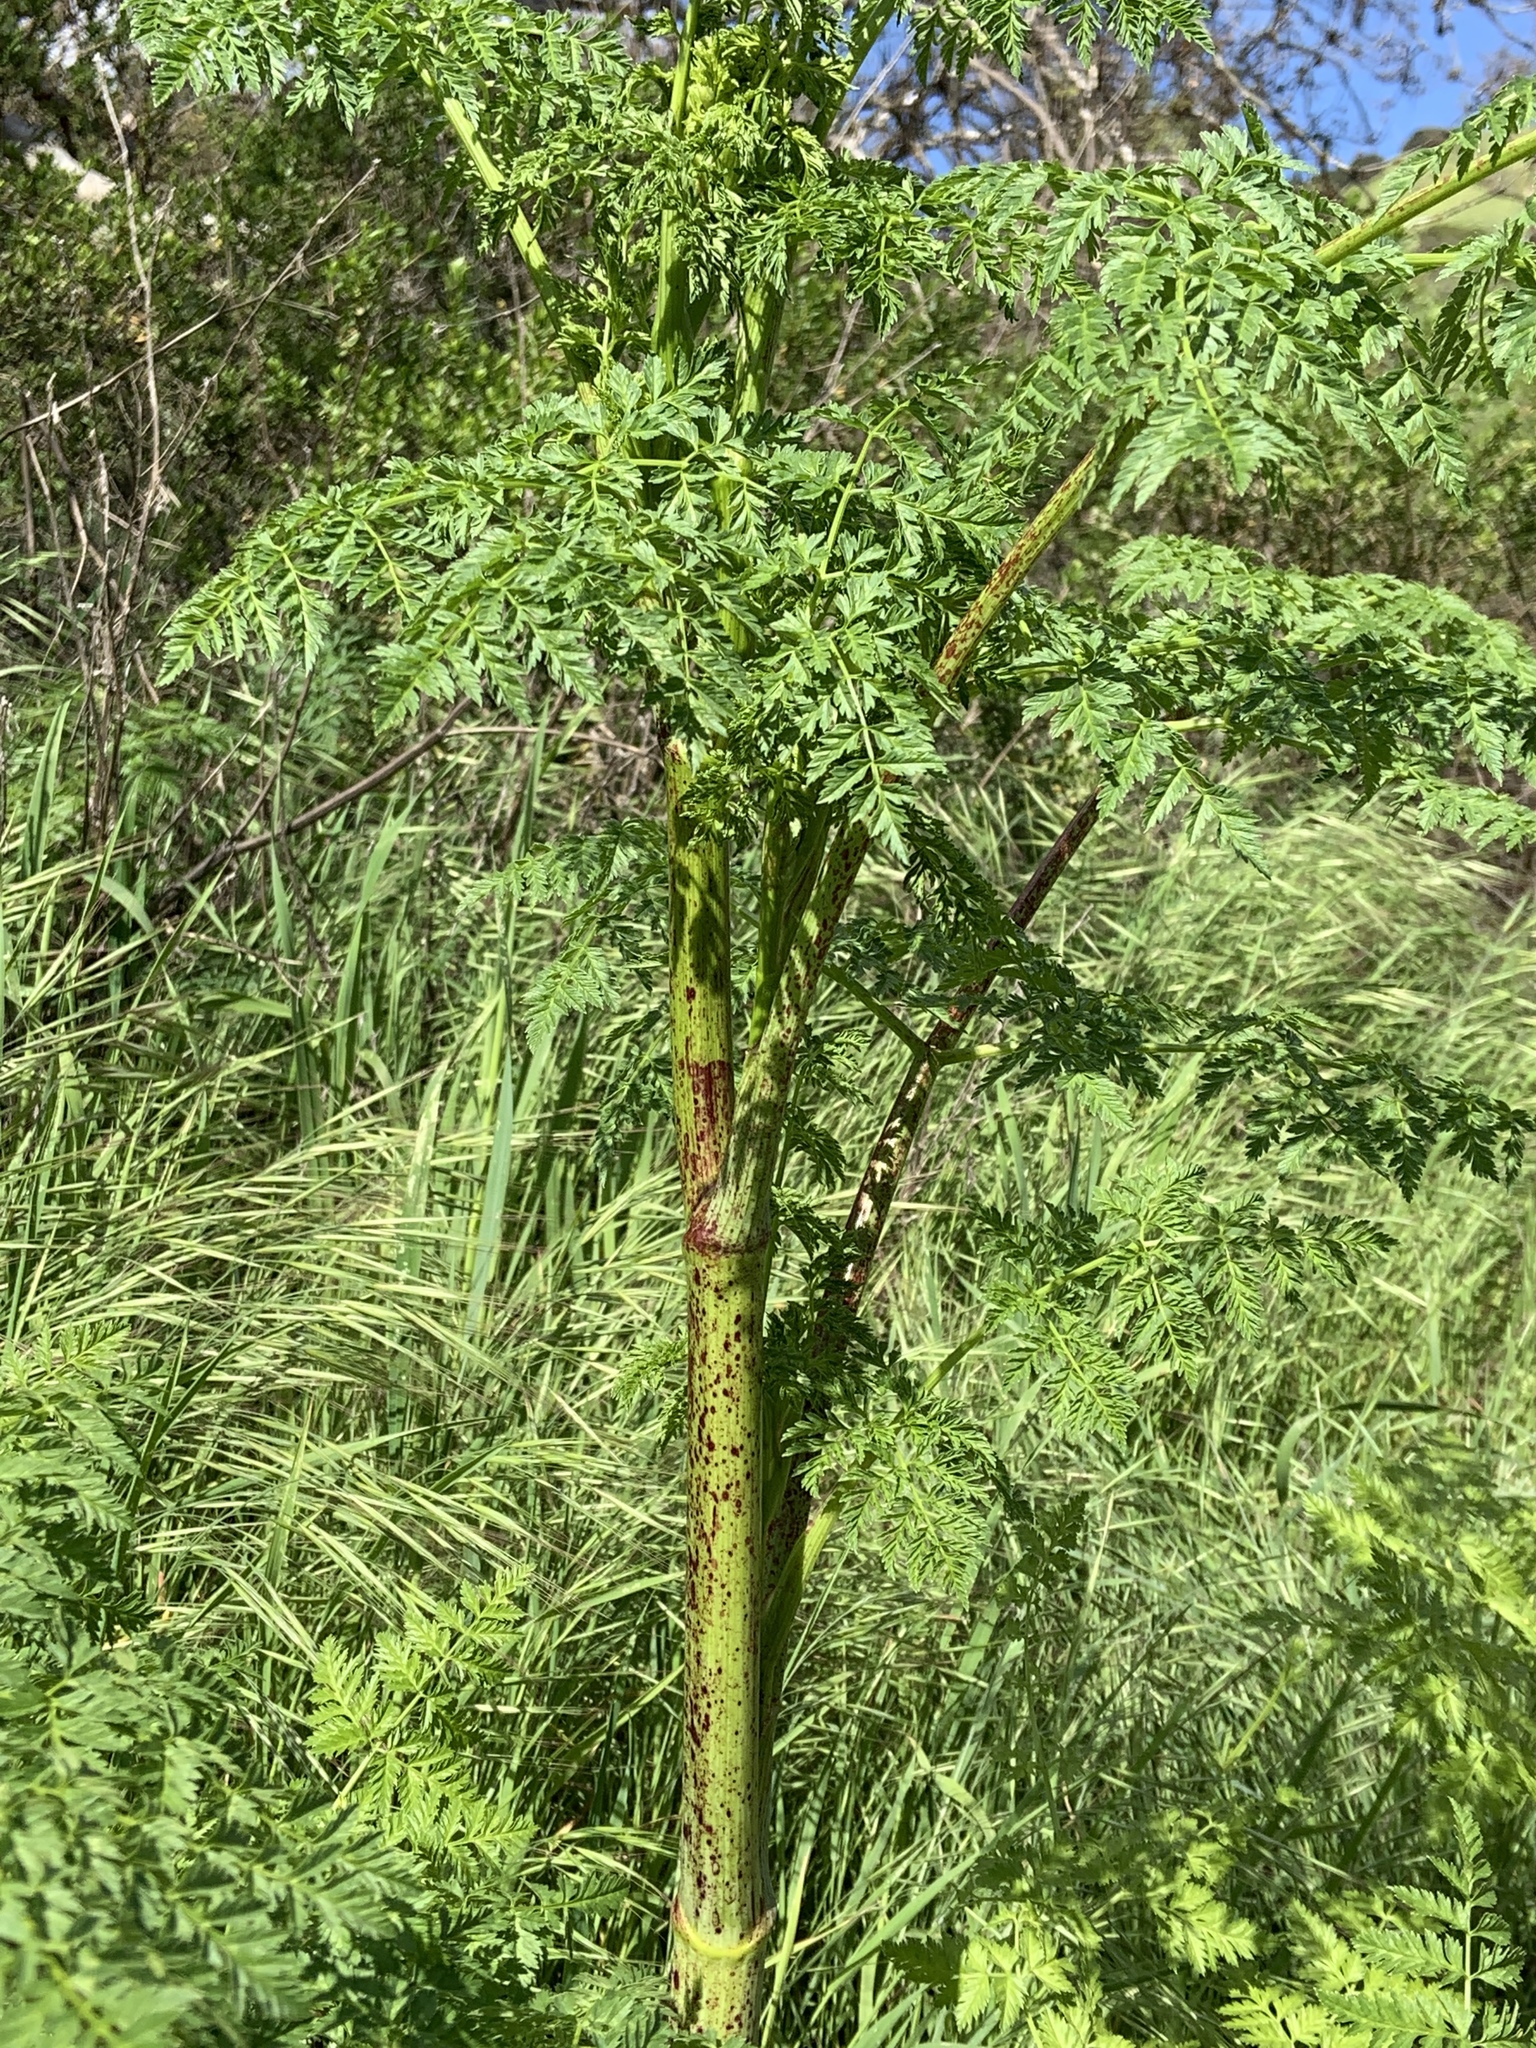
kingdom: Plantae
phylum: Tracheophyta
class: Magnoliopsida
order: Apiales
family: Apiaceae
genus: Conium
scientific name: Conium maculatum
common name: Hemlock
